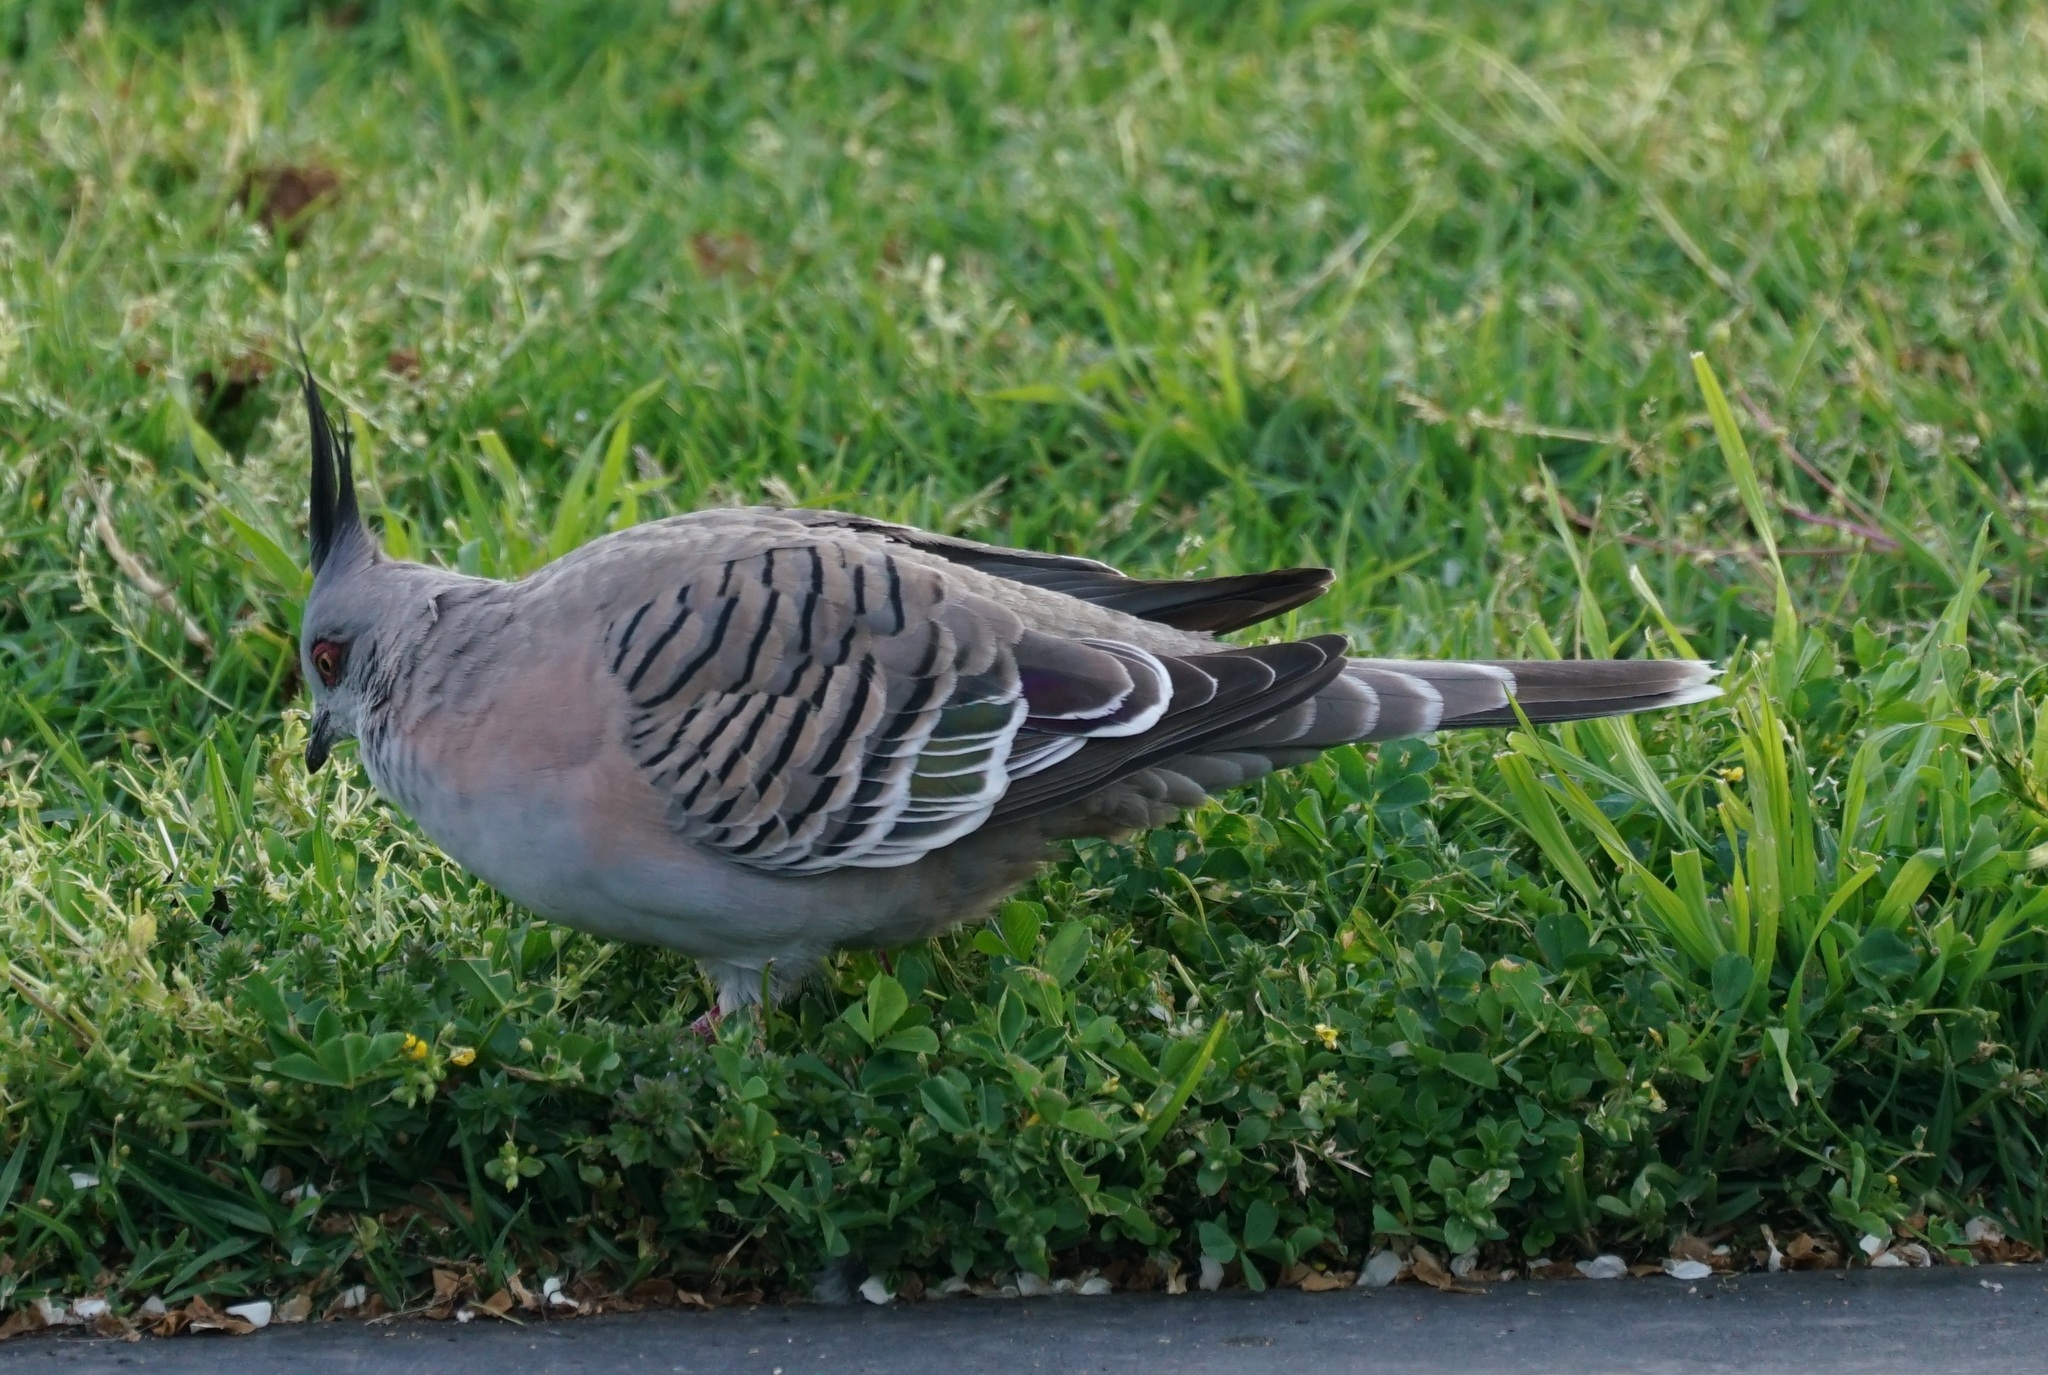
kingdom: Animalia
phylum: Chordata
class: Aves
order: Columbiformes
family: Columbidae
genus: Ocyphaps
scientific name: Ocyphaps lophotes
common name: Crested pigeon
